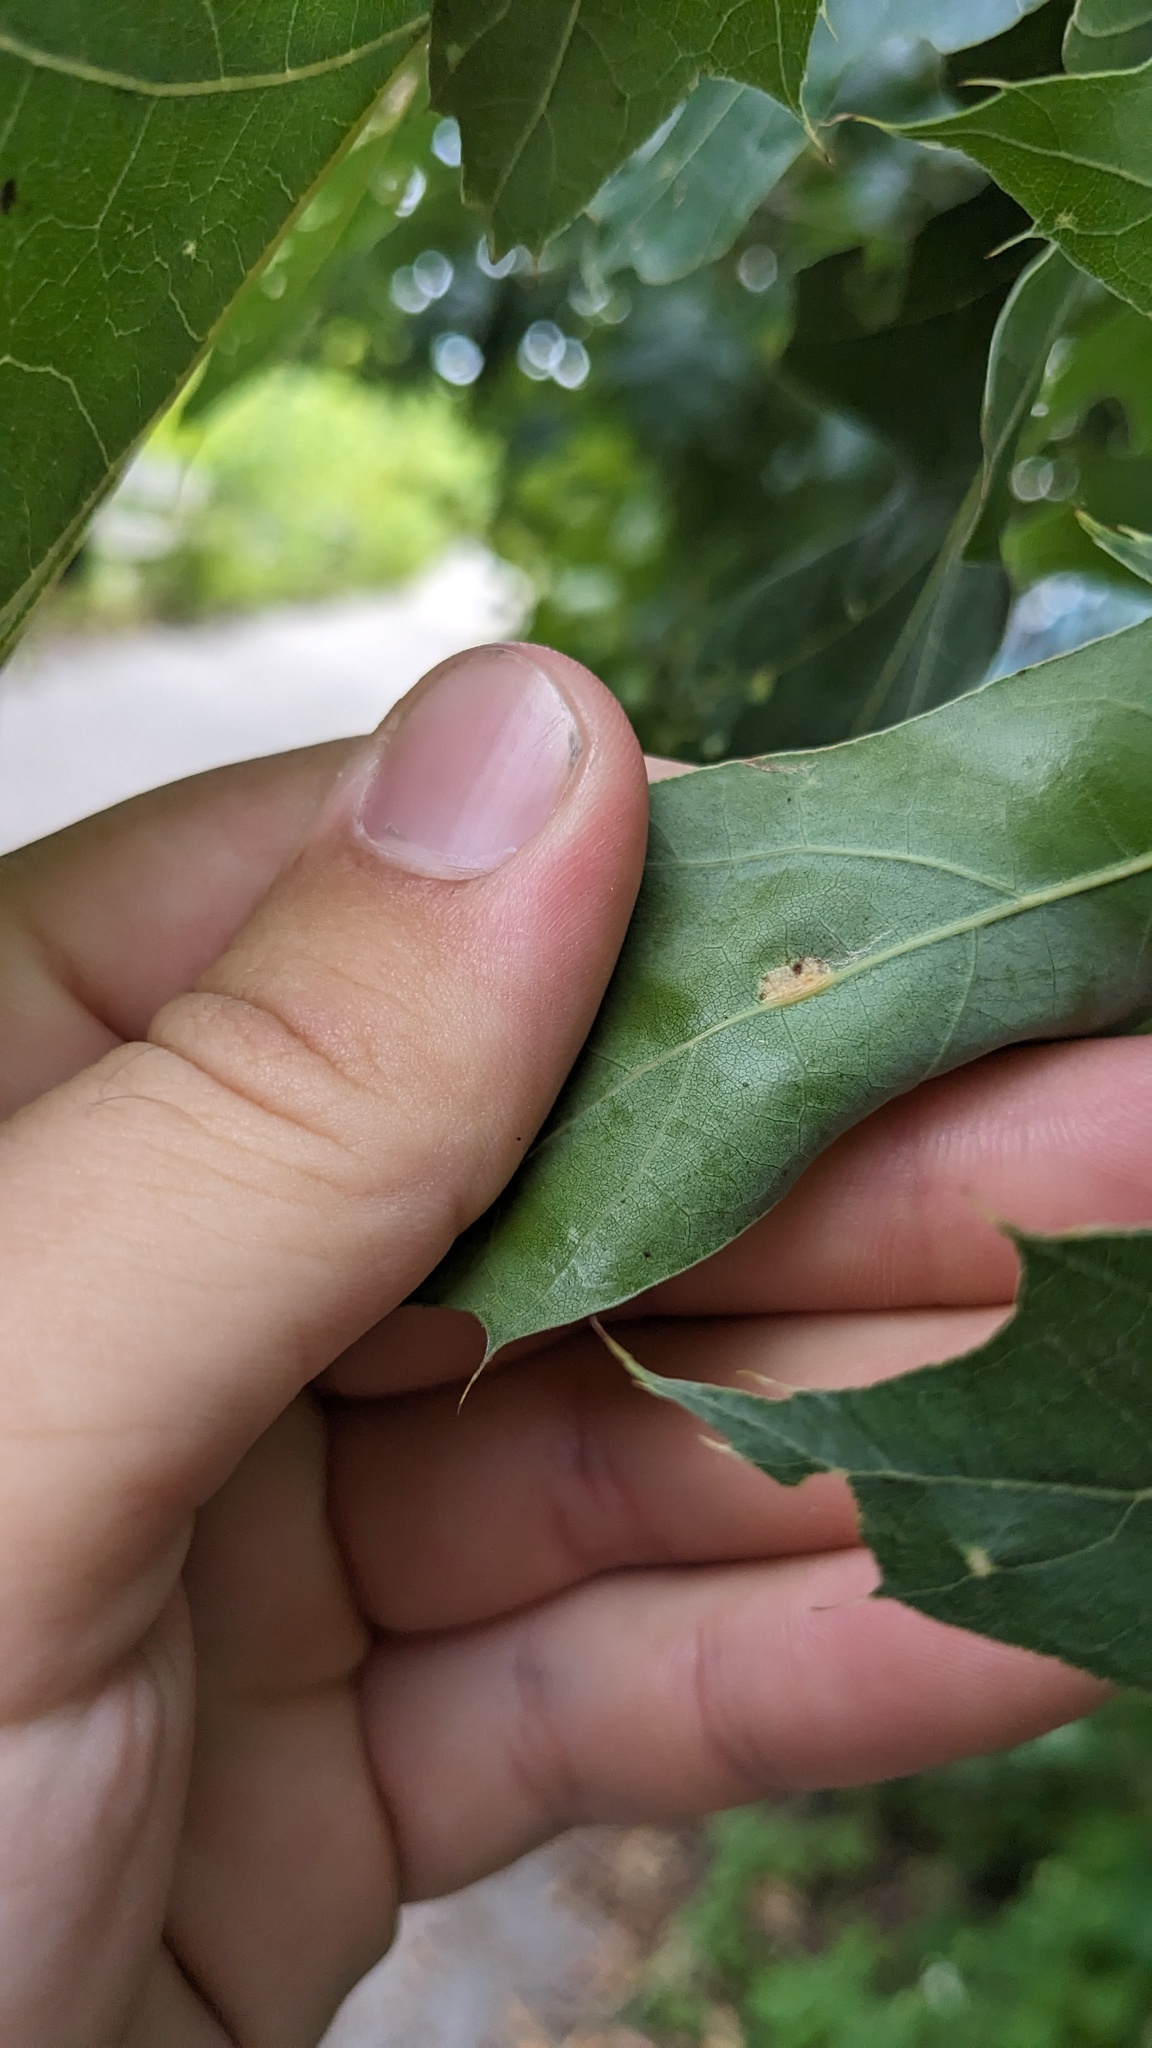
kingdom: Animalia
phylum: Arthropoda
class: Insecta
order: Diptera
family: Cecidomyiidae
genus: Polystepha
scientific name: Polystepha pilulae
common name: Oak leaf gall midge
